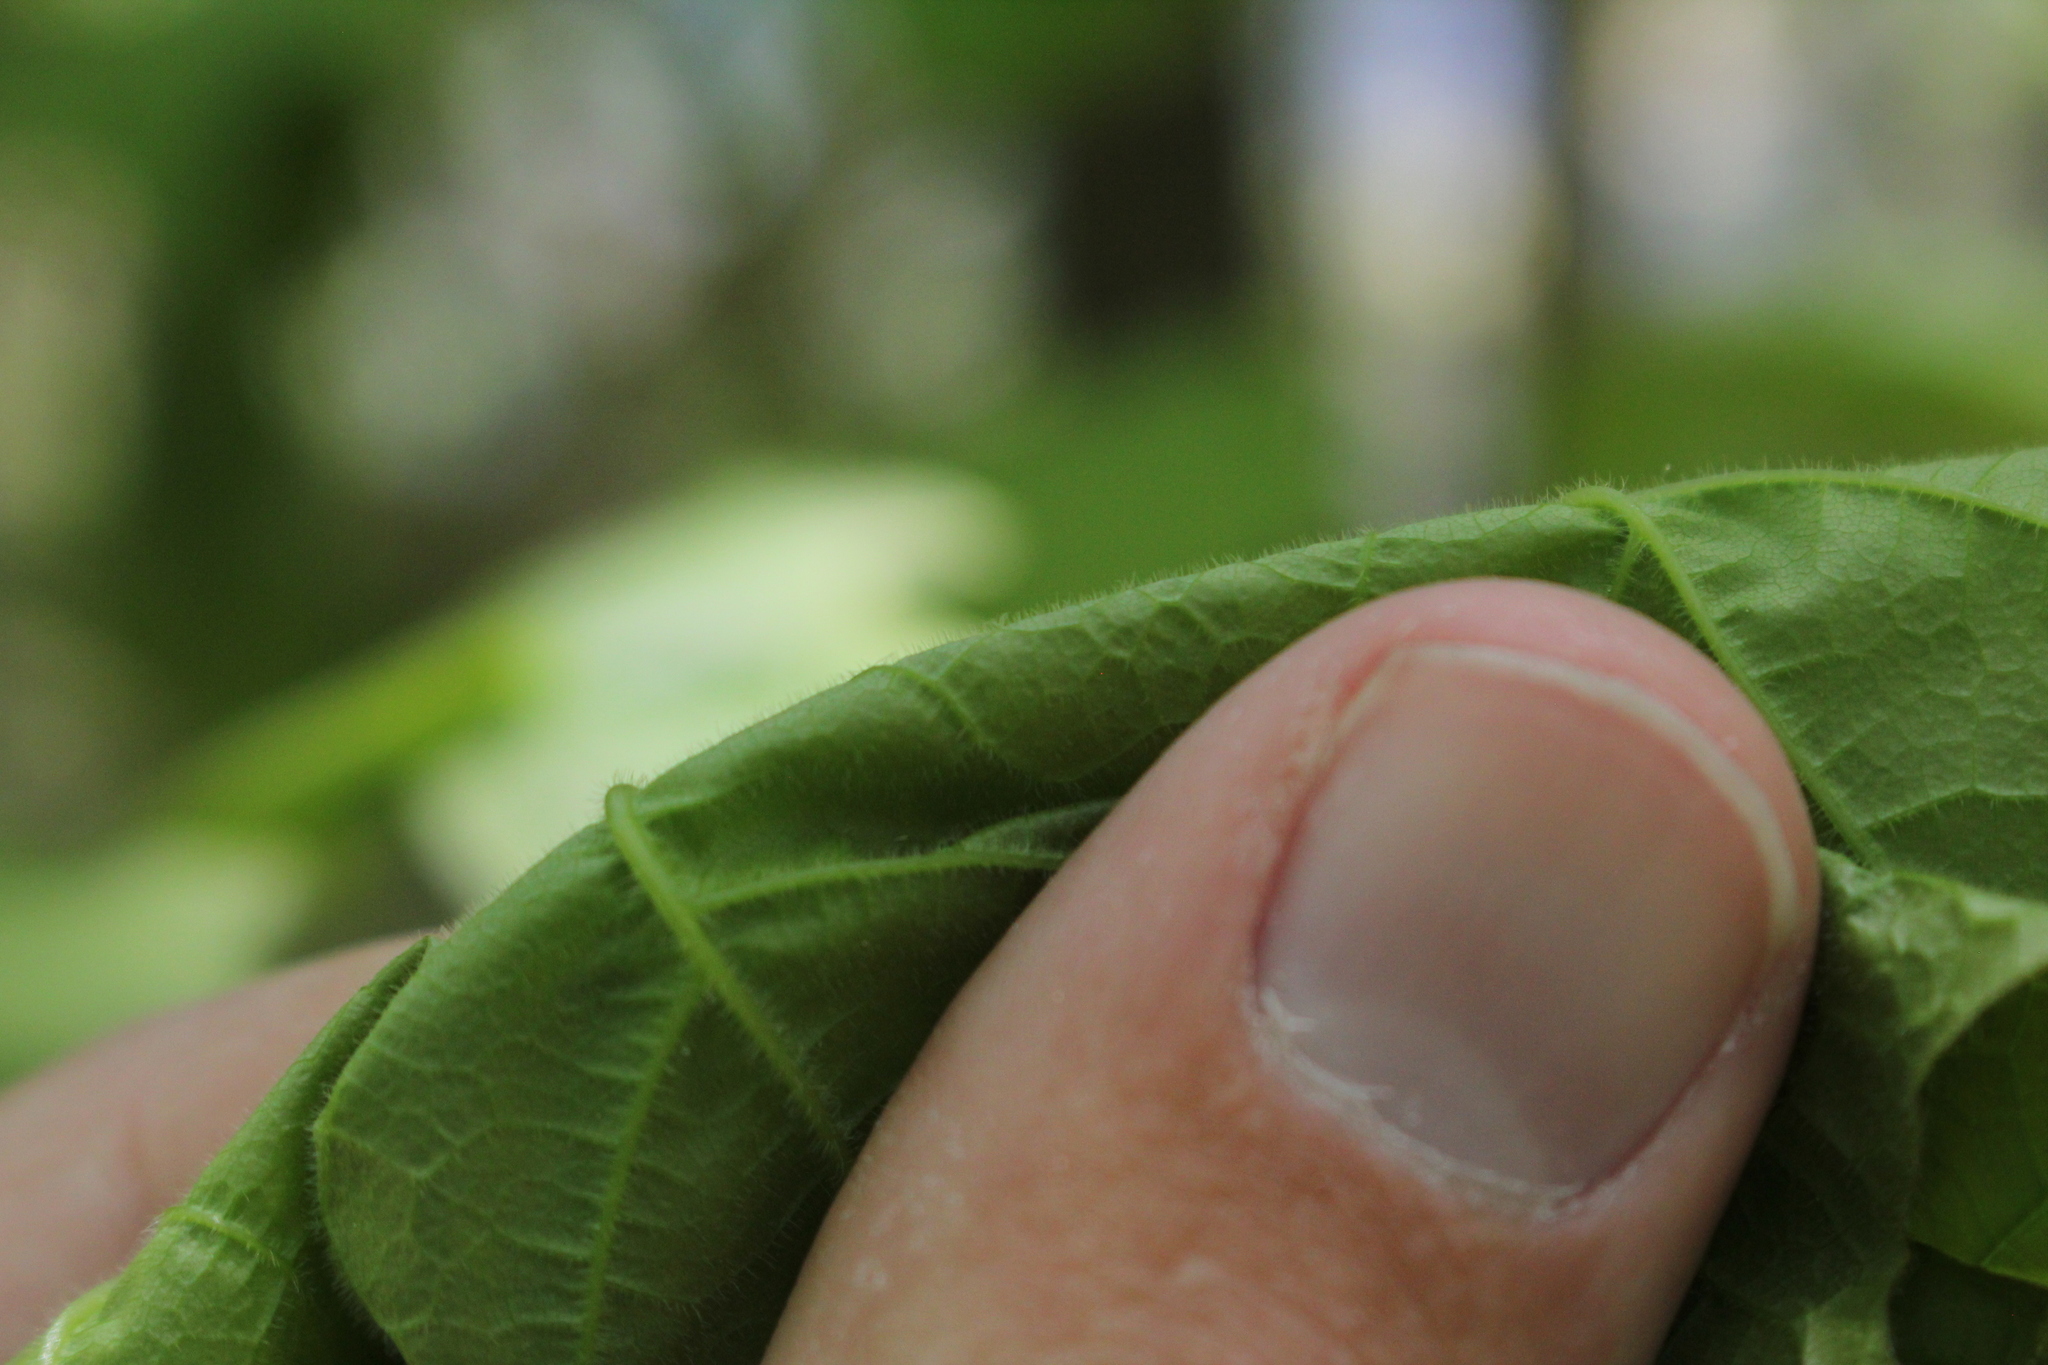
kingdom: Plantae
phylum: Tracheophyta
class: Magnoliopsida
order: Sapindales
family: Sapindaceae
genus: Acer
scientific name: Acer nigrum
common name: Black maple
